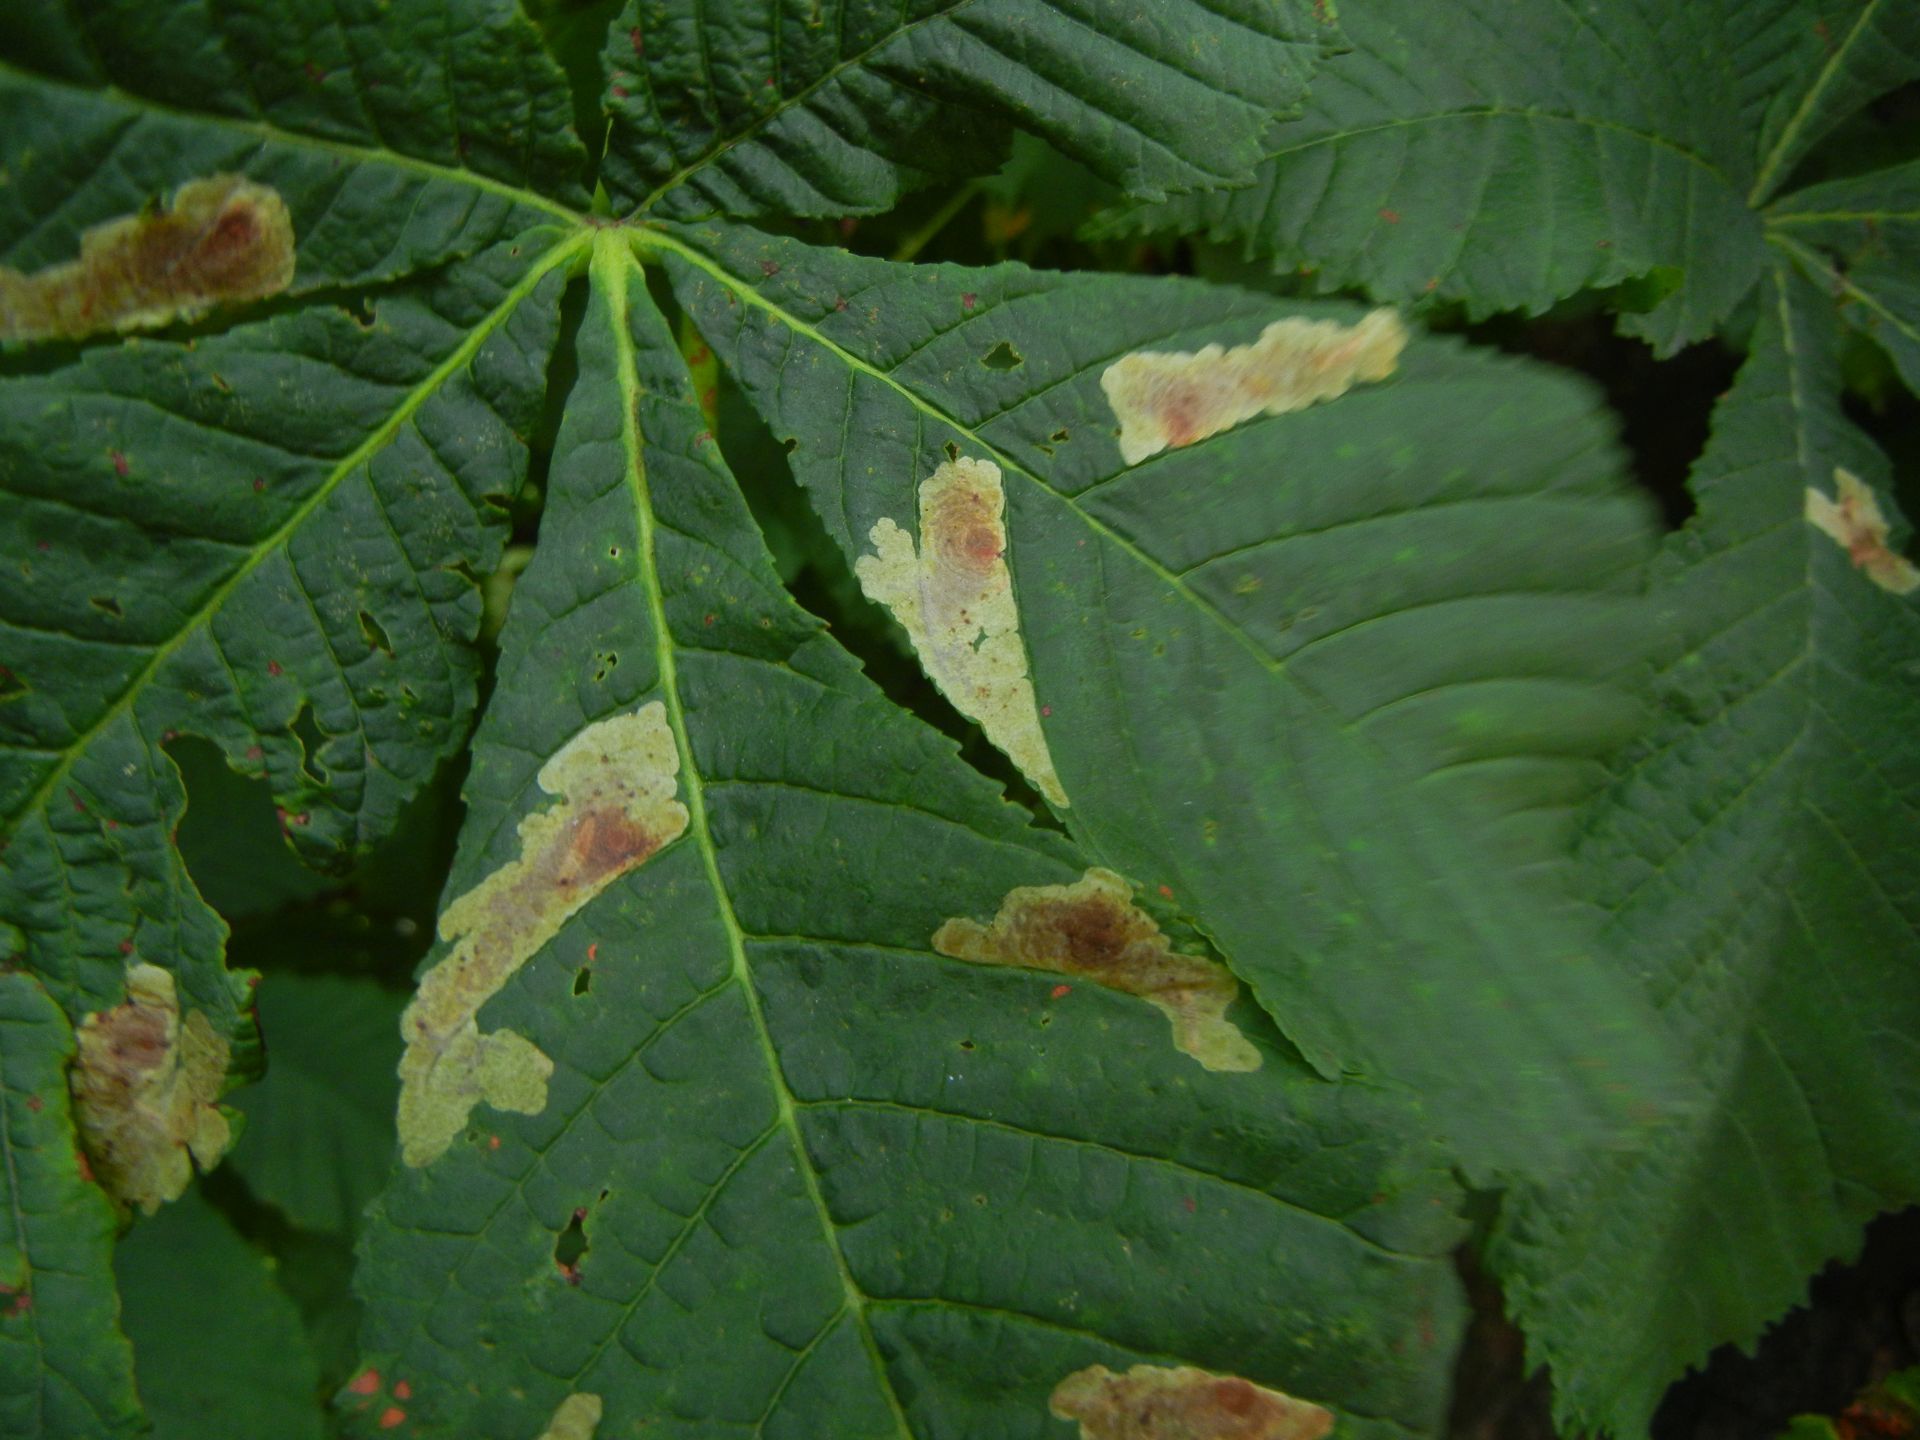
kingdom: Plantae
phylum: Tracheophyta
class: Magnoliopsida
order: Sapindales
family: Sapindaceae
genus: Aesculus
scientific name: Aesculus hippocastanum
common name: Horse-chestnut
